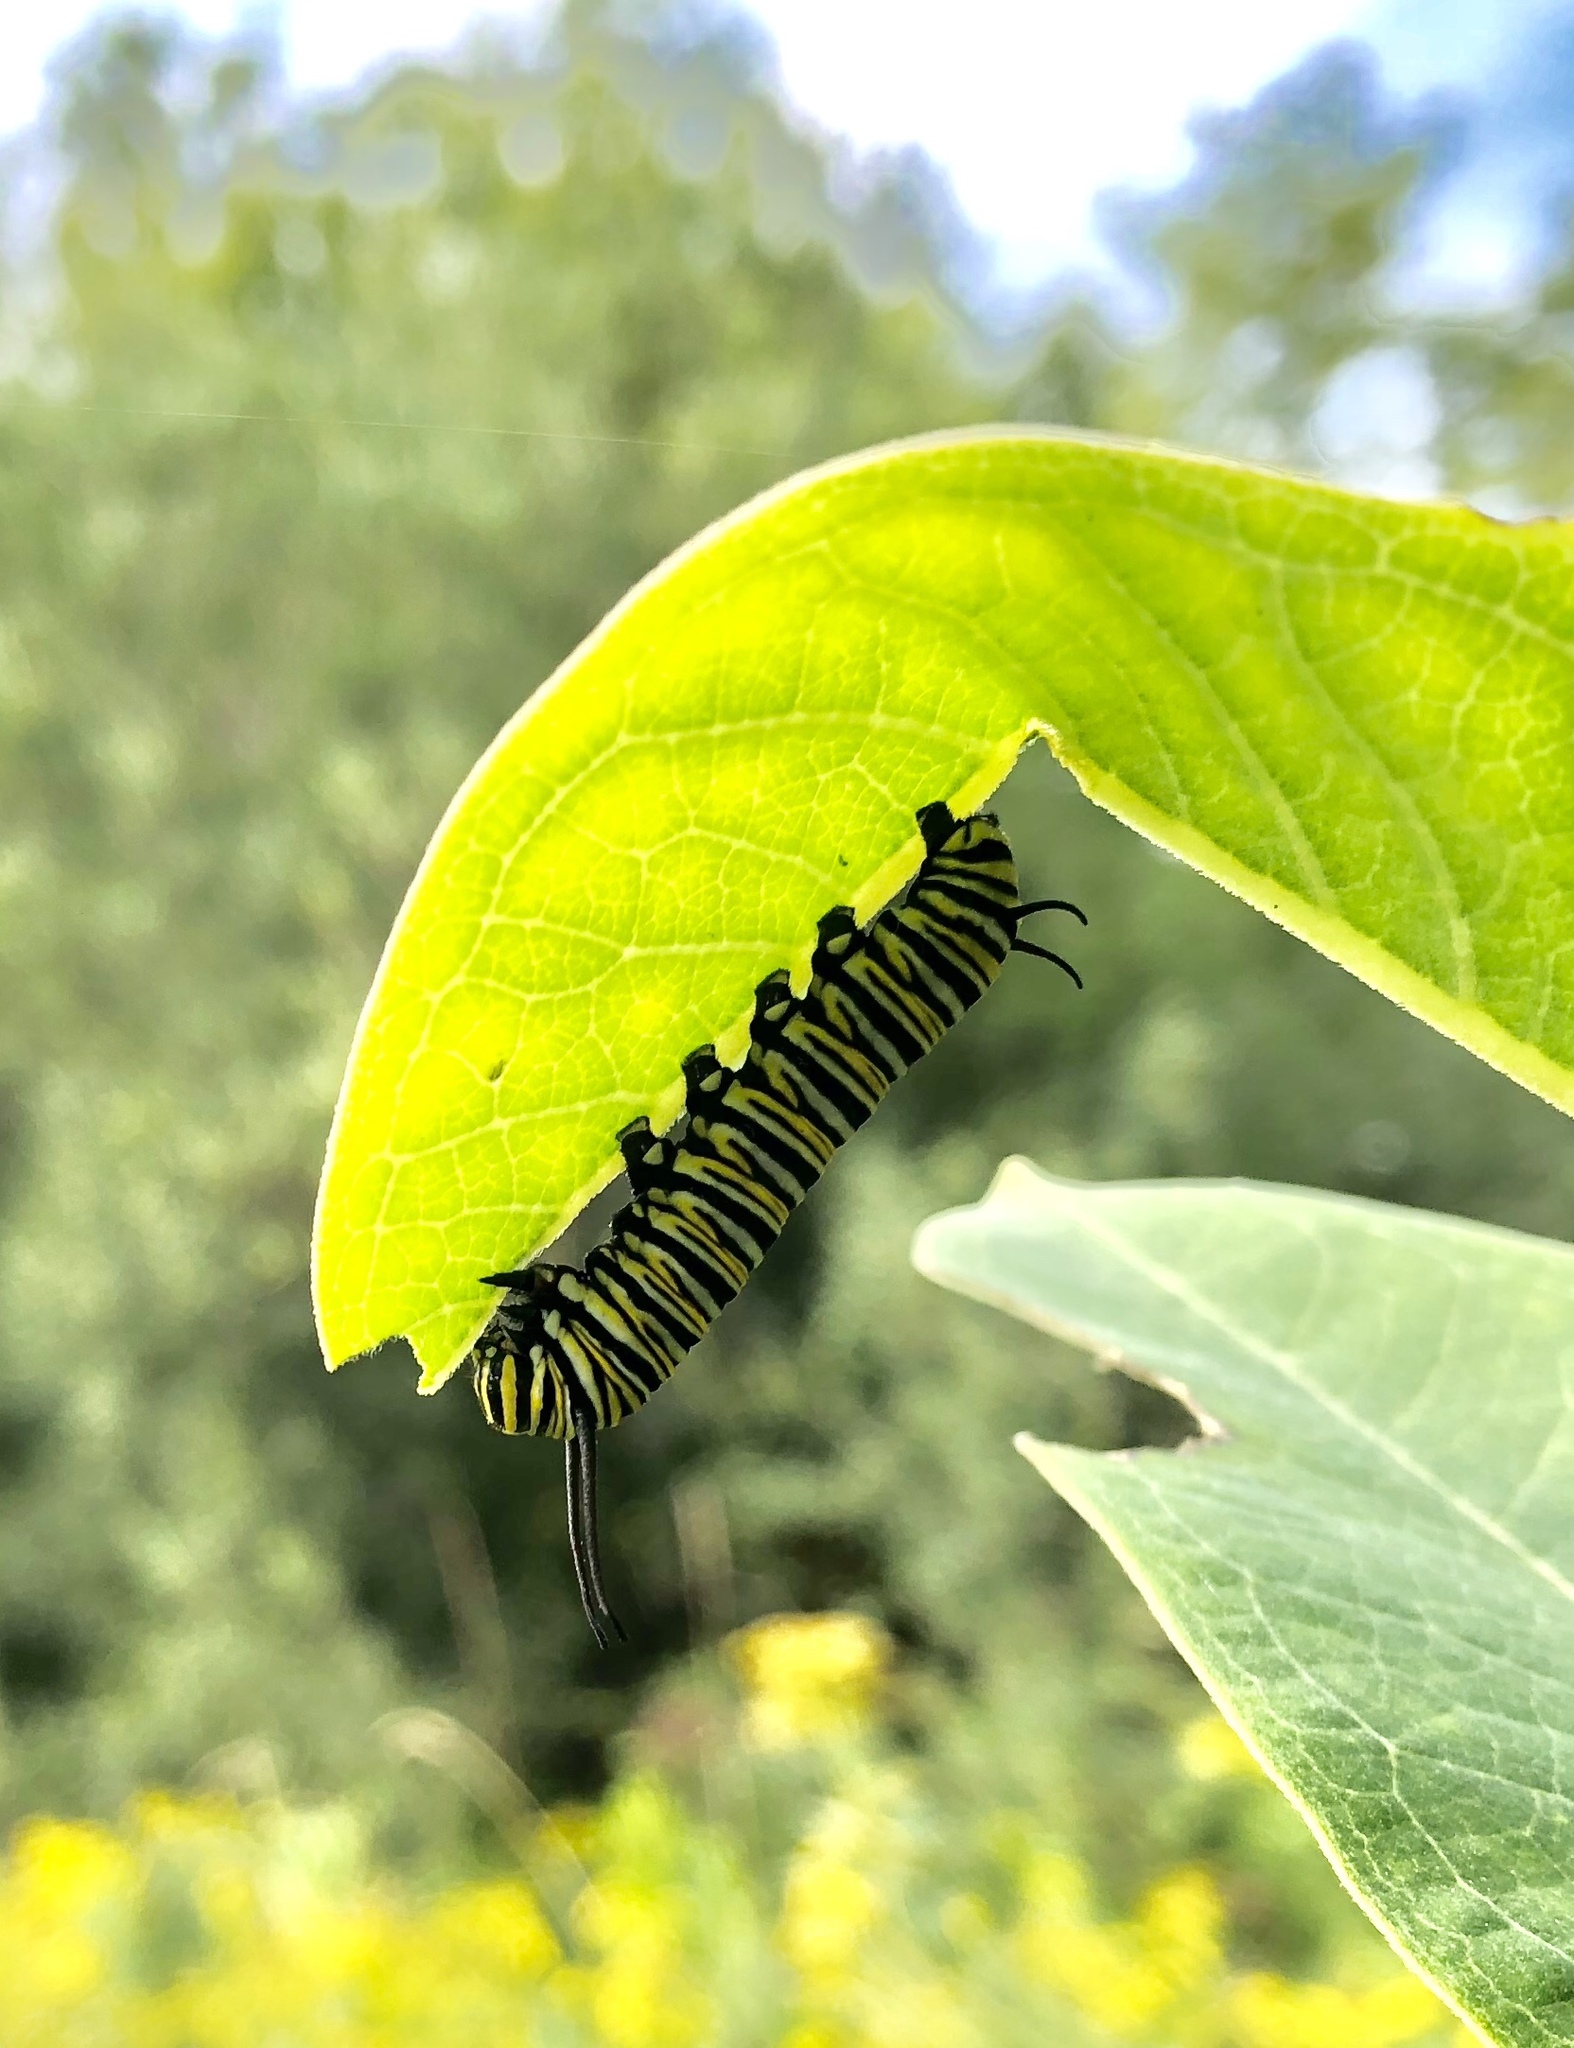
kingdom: Animalia
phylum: Arthropoda
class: Insecta
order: Lepidoptera
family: Nymphalidae
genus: Danaus
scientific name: Danaus plexippus
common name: Monarch
